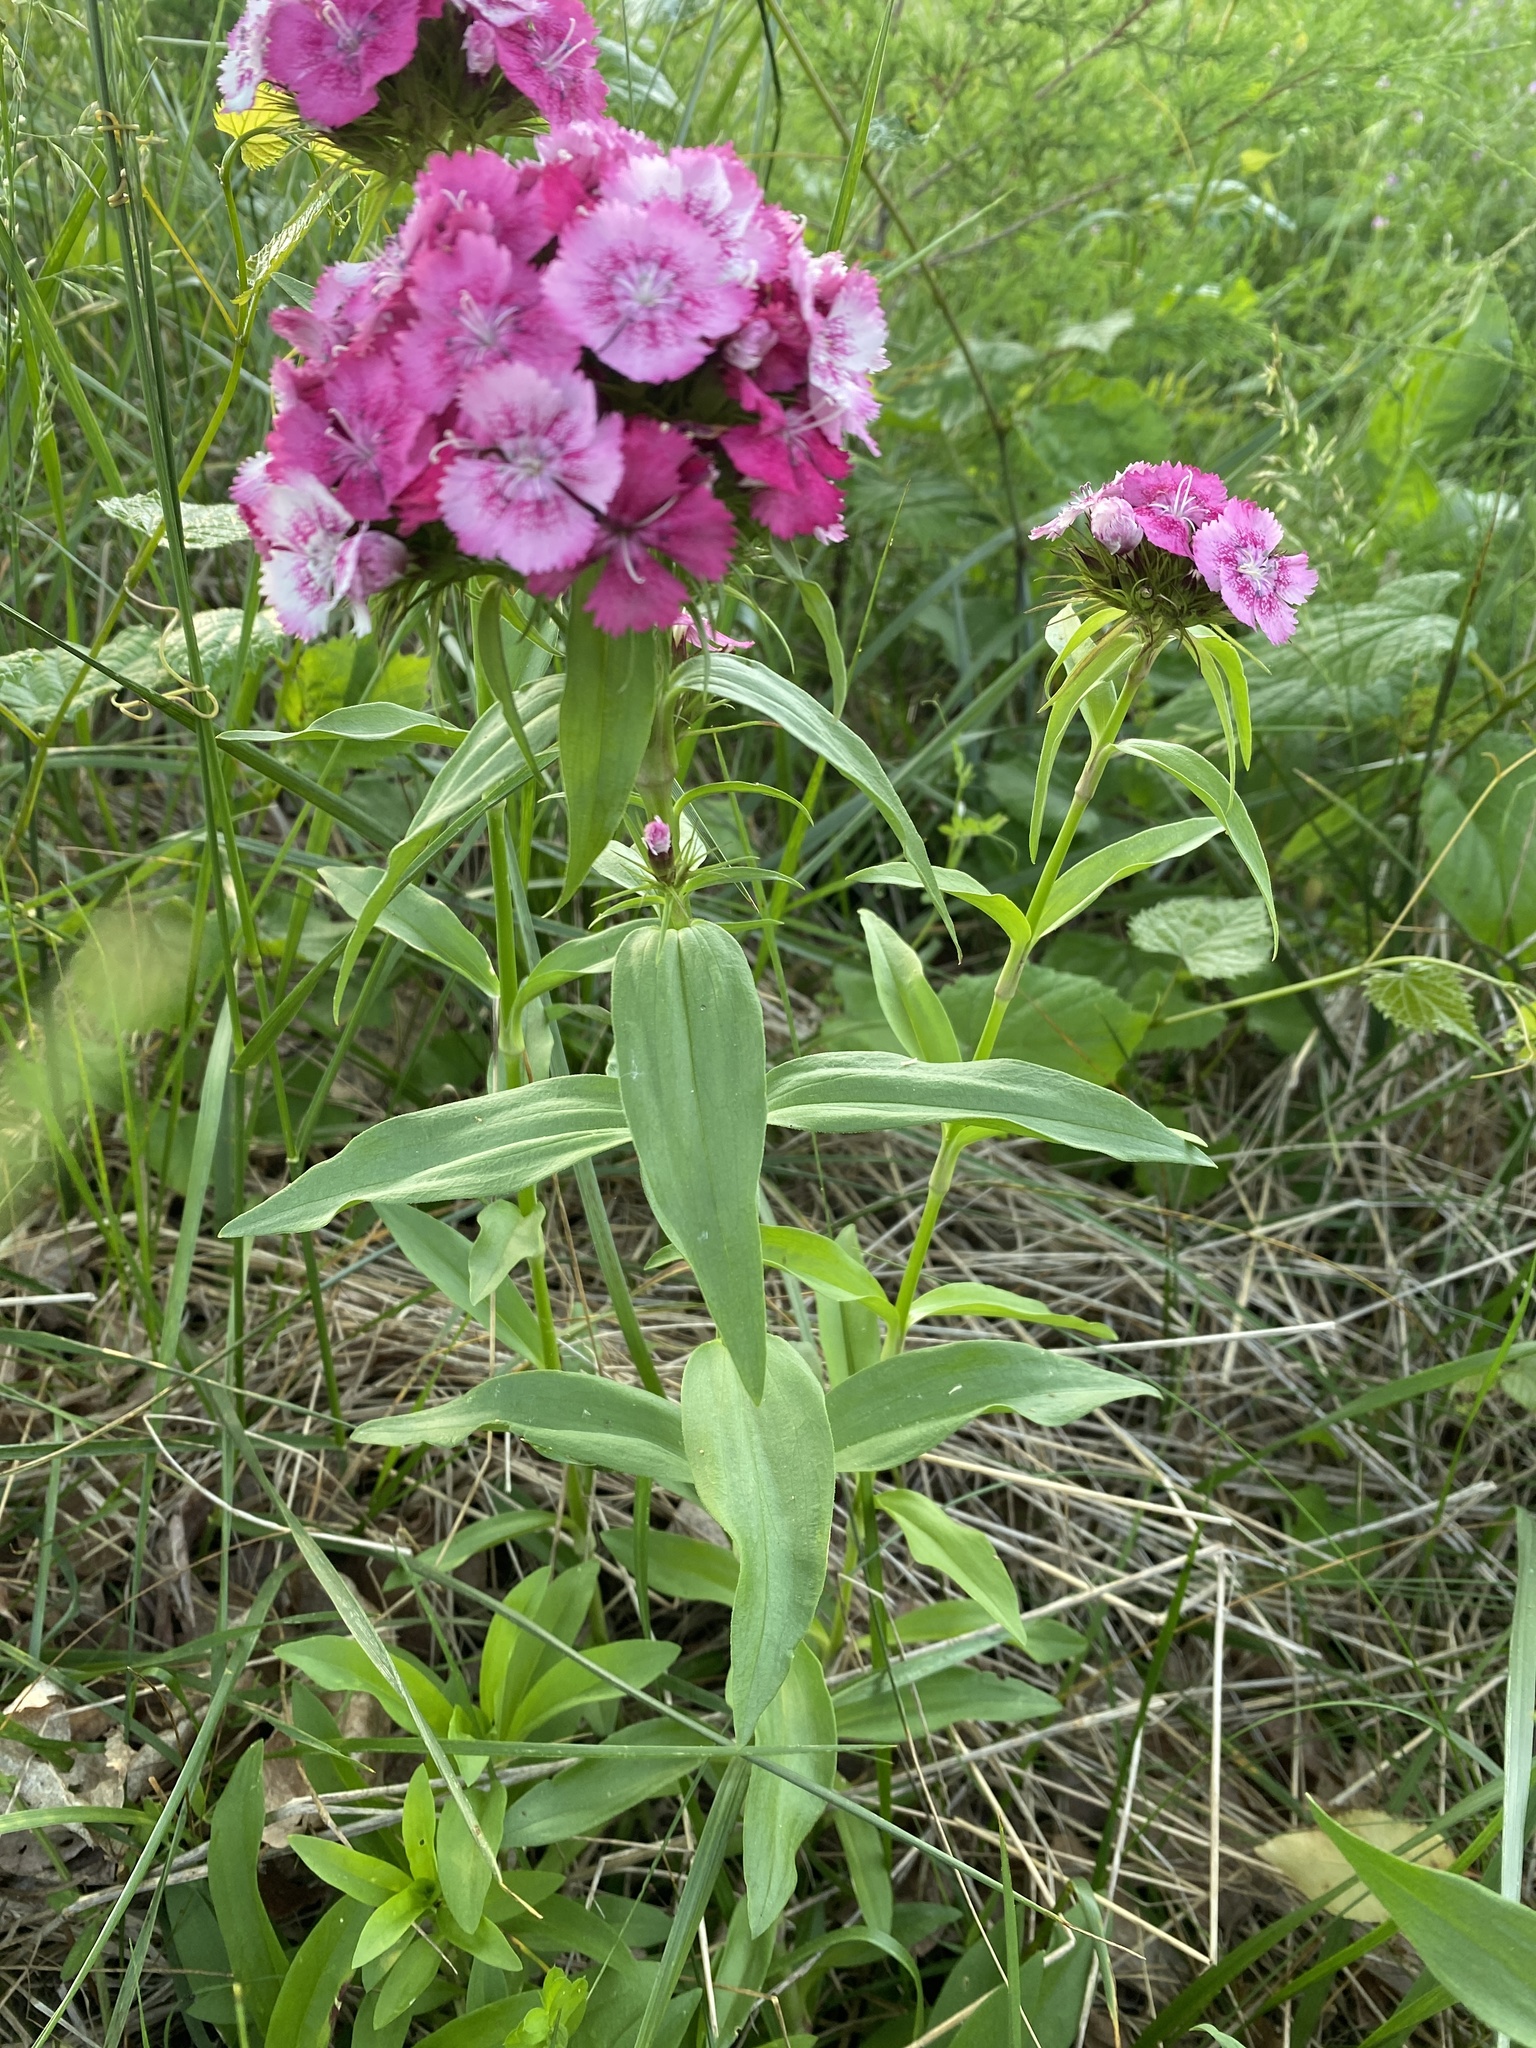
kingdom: Plantae
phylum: Tracheophyta
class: Magnoliopsida
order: Caryophyllales
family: Caryophyllaceae
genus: Dianthus
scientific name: Dianthus barbatus
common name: Sweet-william
